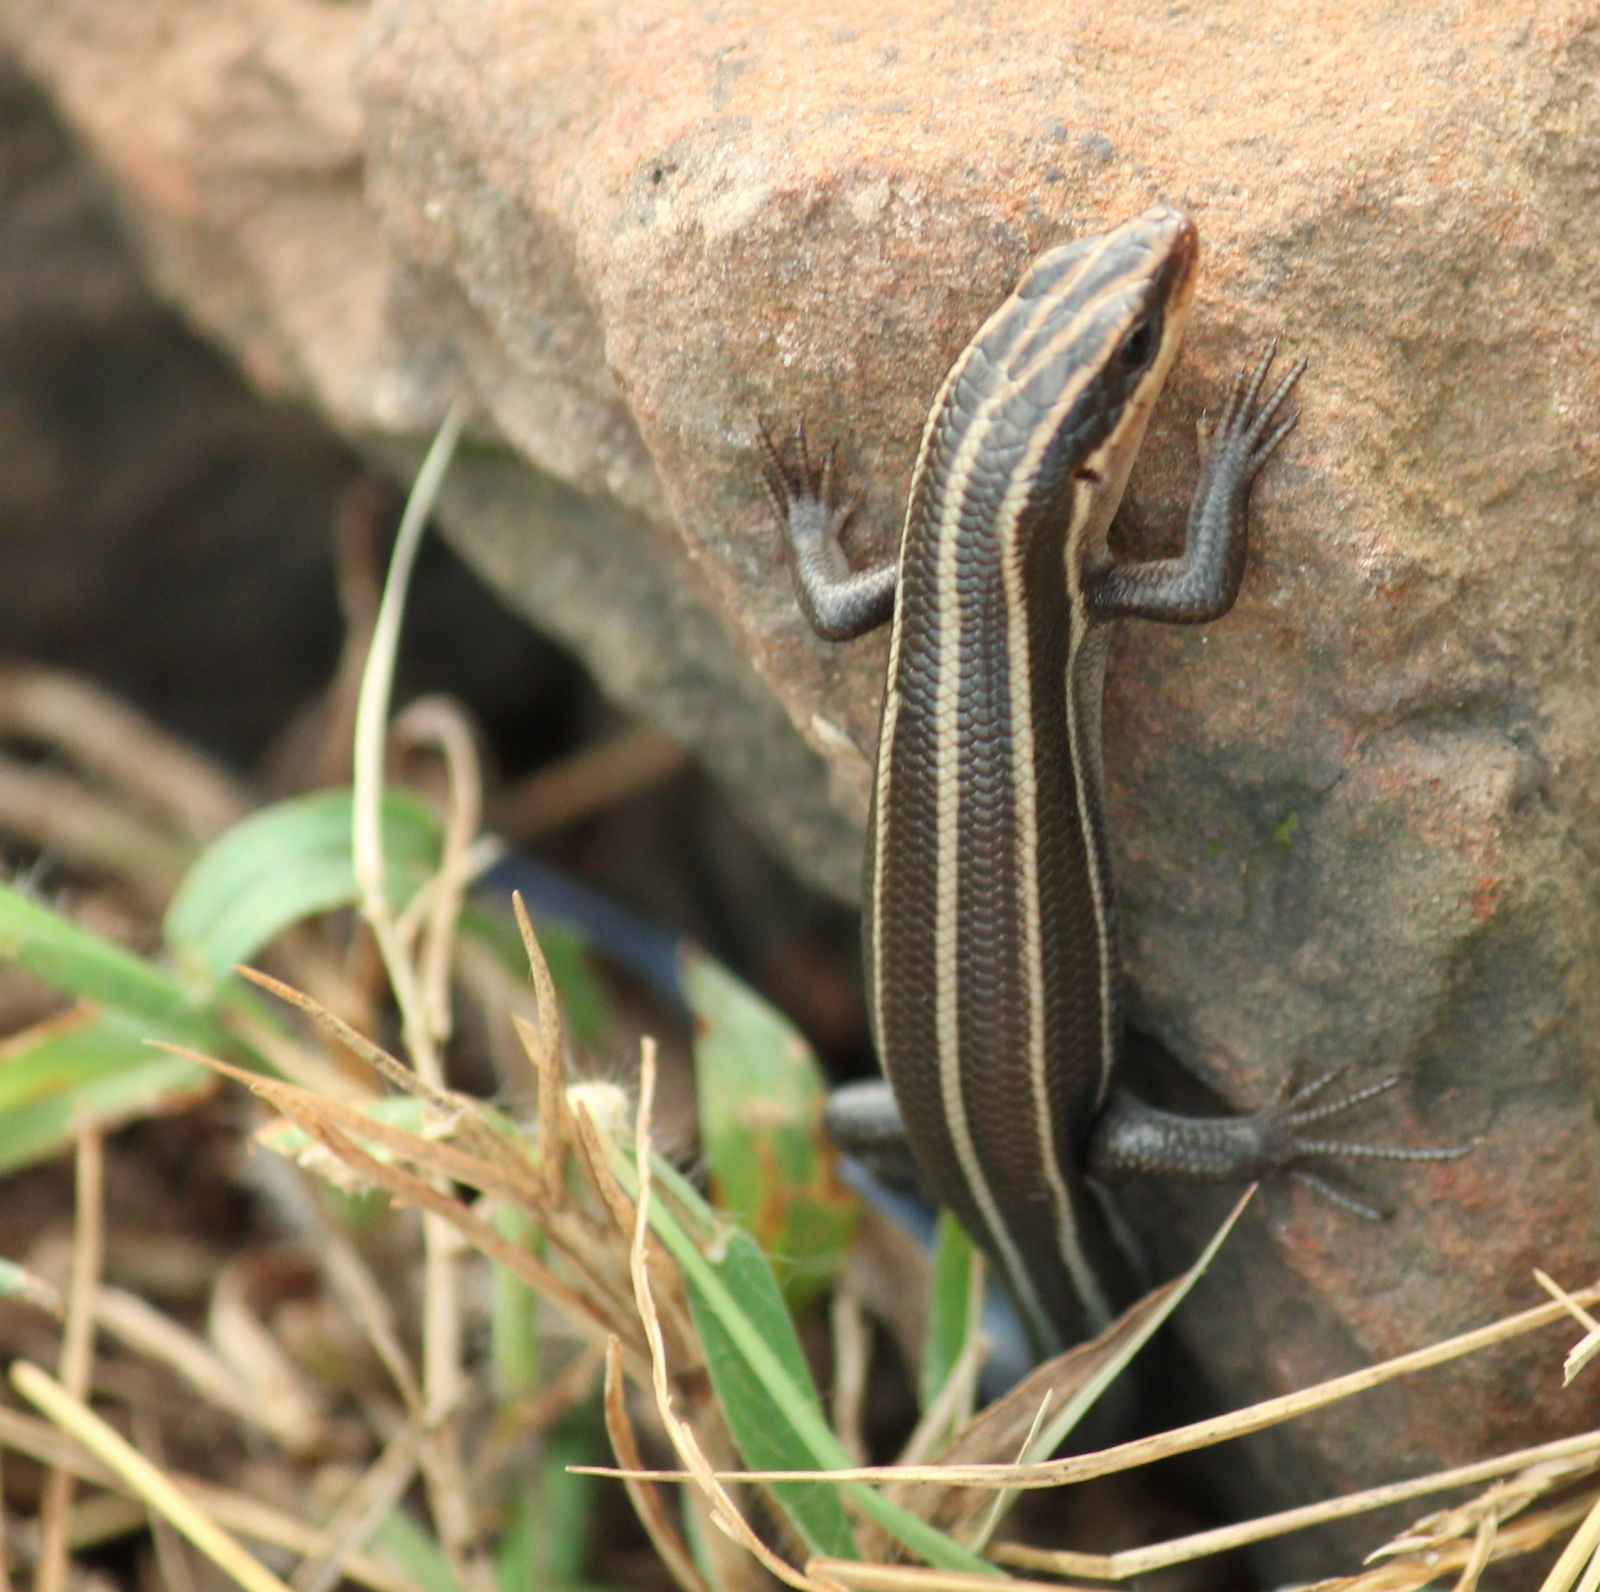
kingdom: Animalia
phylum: Chordata
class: Squamata
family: Scincidae
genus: Plestiodon
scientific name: Plestiodon fasciatus
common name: Five-lined skink
